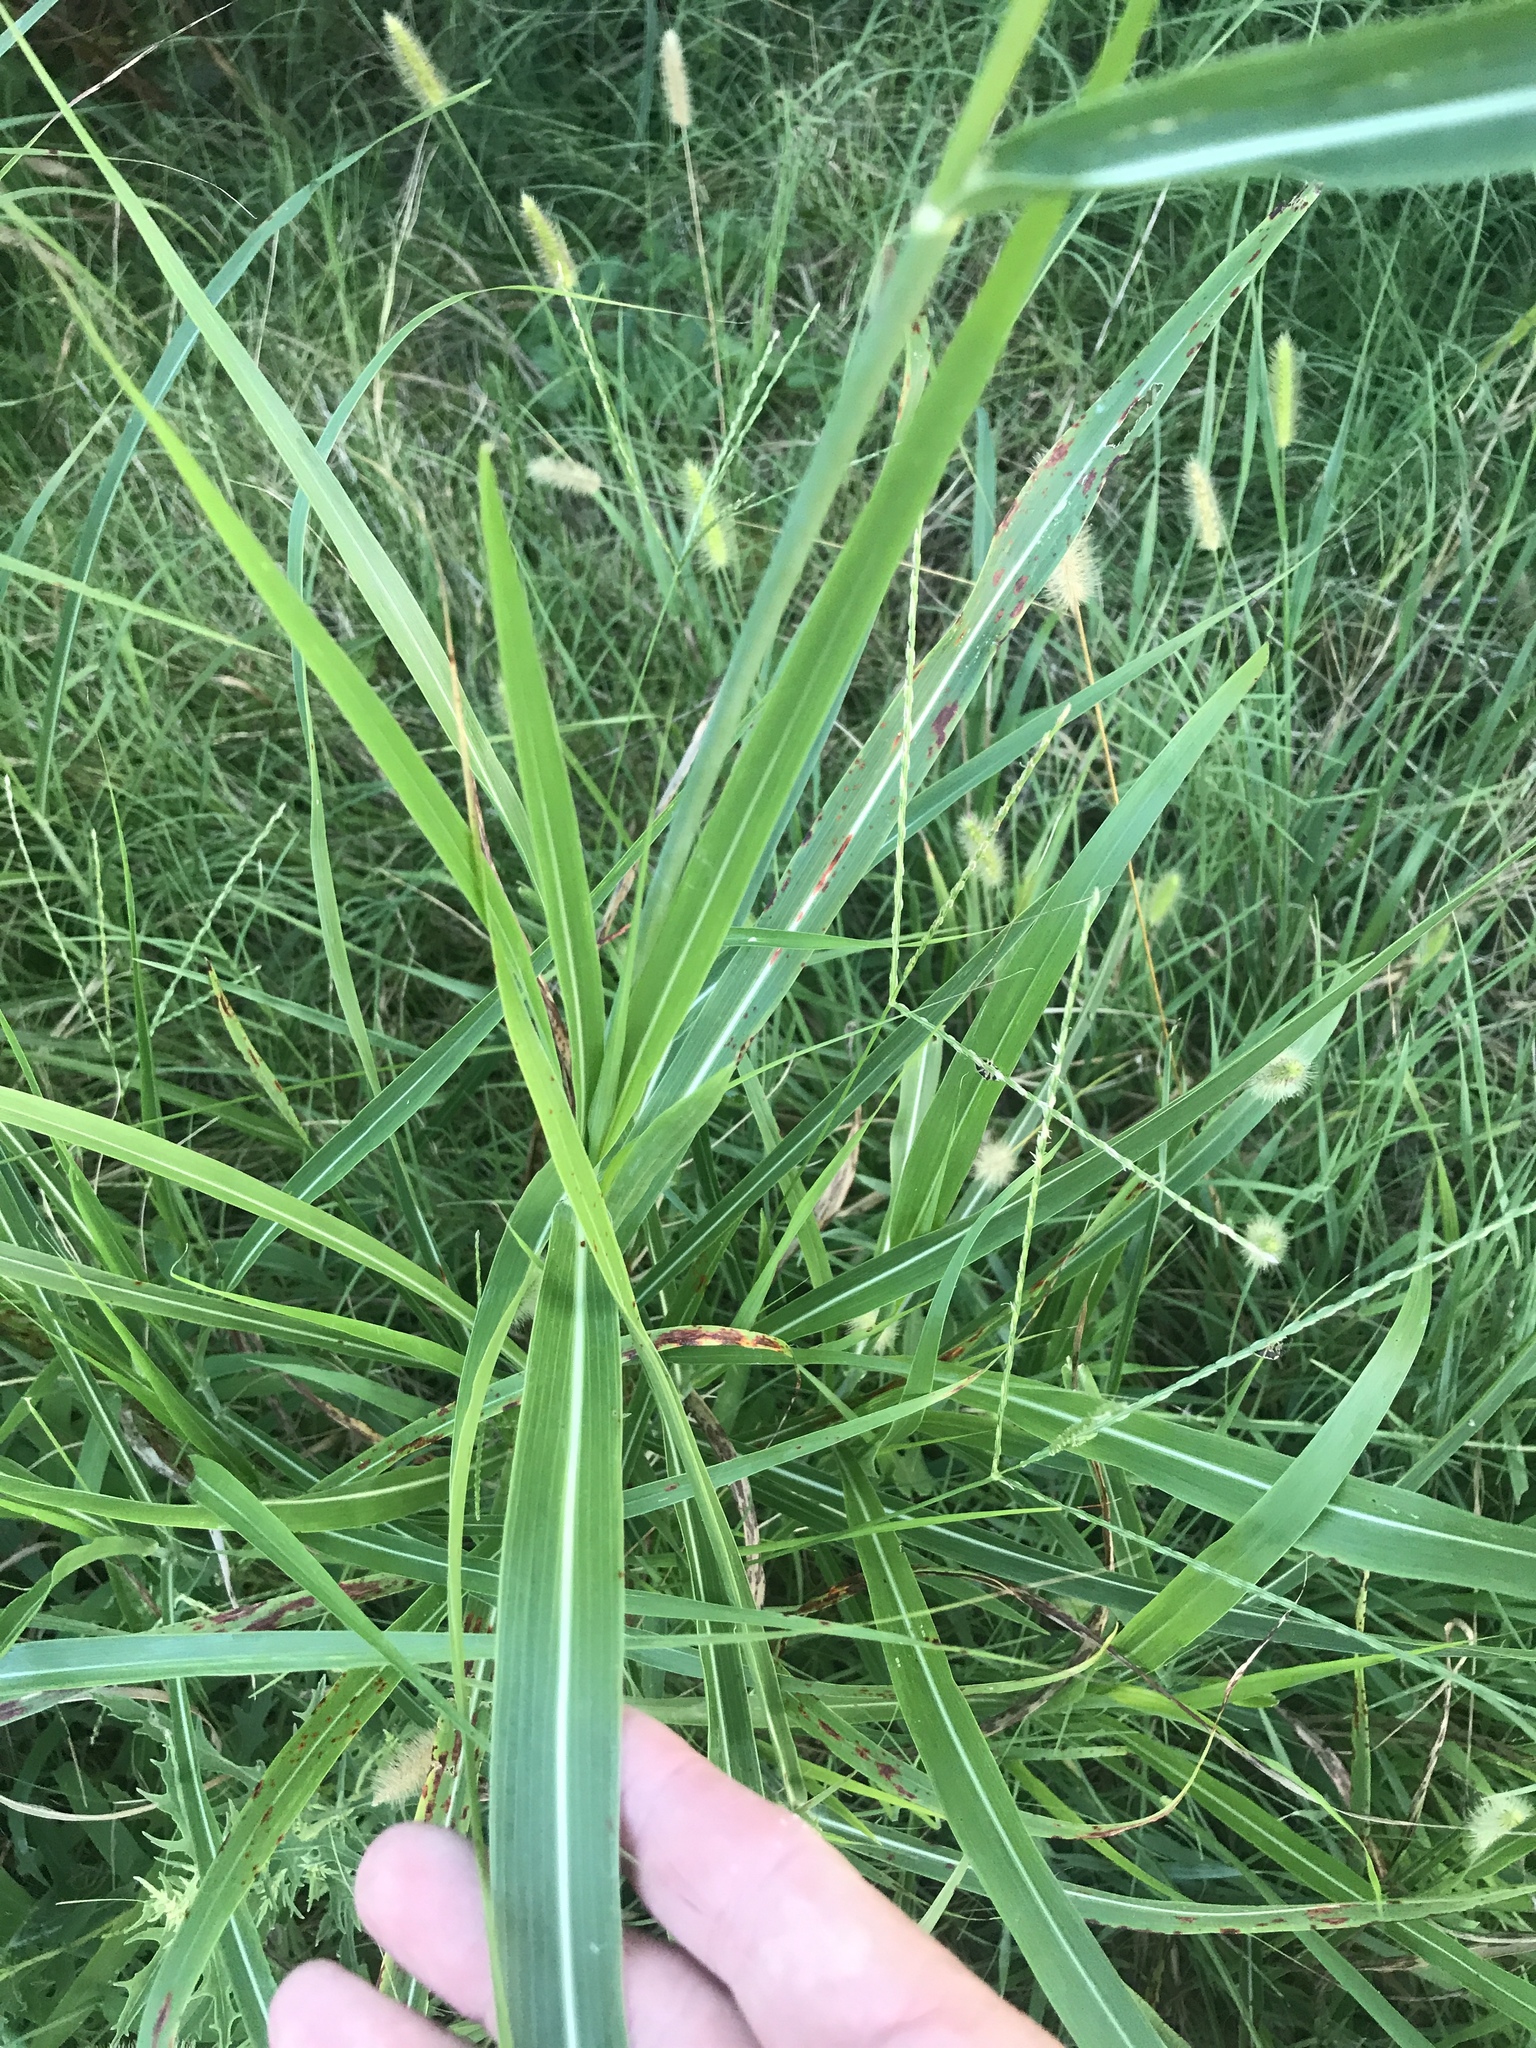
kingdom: Plantae
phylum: Tracheophyta
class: Liliopsida
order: Poales
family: Poaceae
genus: Sorghum
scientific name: Sorghum halepense
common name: Johnson-grass
